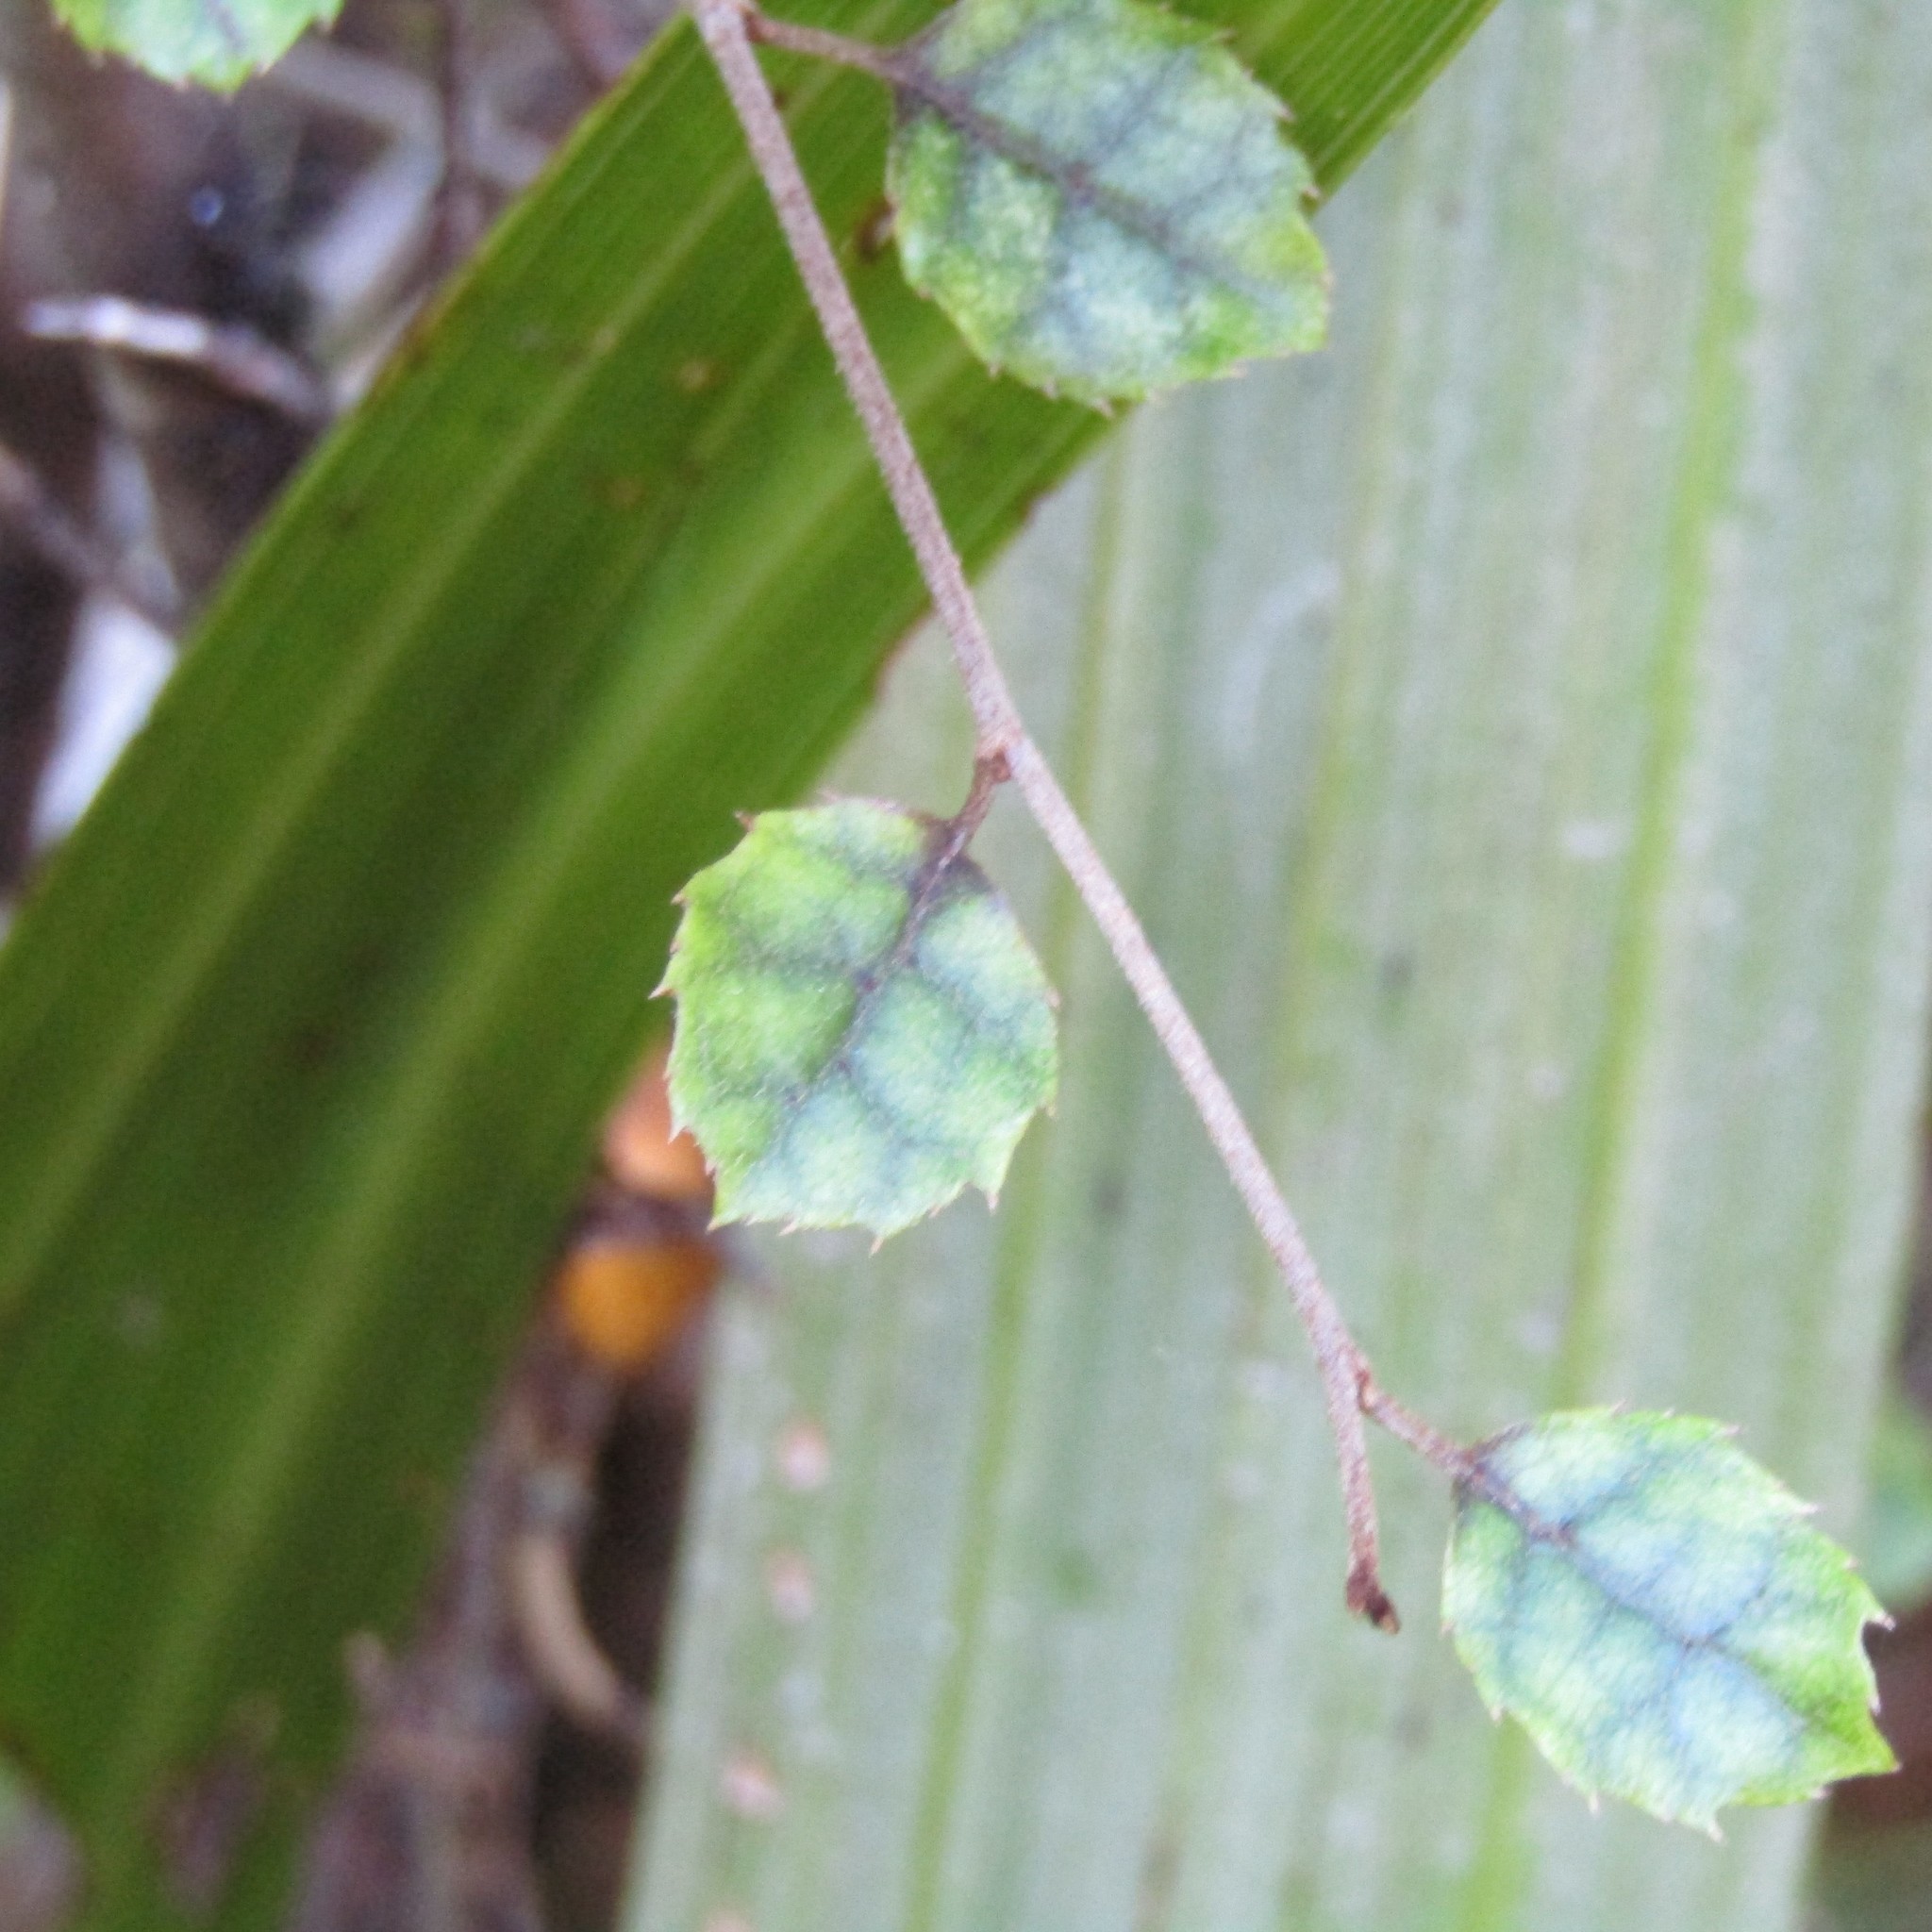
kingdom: Plantae
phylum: Tracheophyta
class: Magnoliopsida
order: Asterales
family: Rousseaceae
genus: Carpodetus
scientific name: Carpodetus serratus
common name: White mapau
